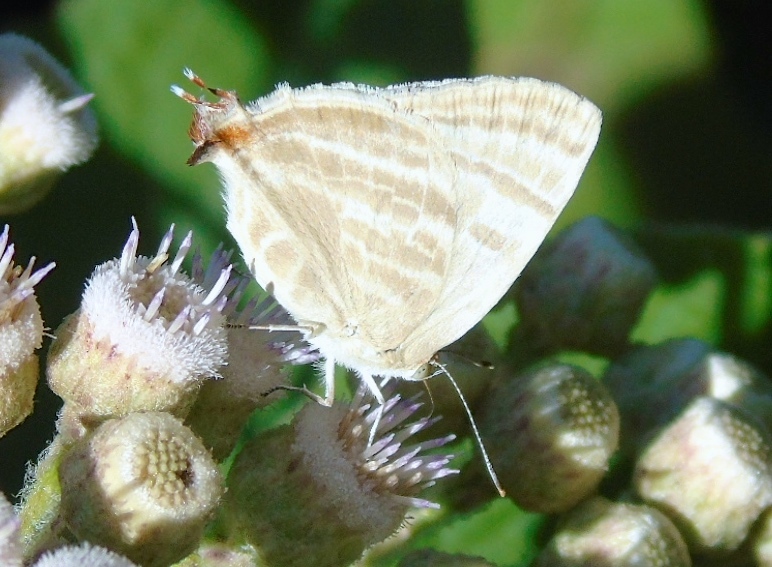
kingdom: Animalia
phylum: Arthropoda
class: Insecta
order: Lepidoptera
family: Lycaenidae
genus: Dolymorpha
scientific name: Dolymorpha jada
